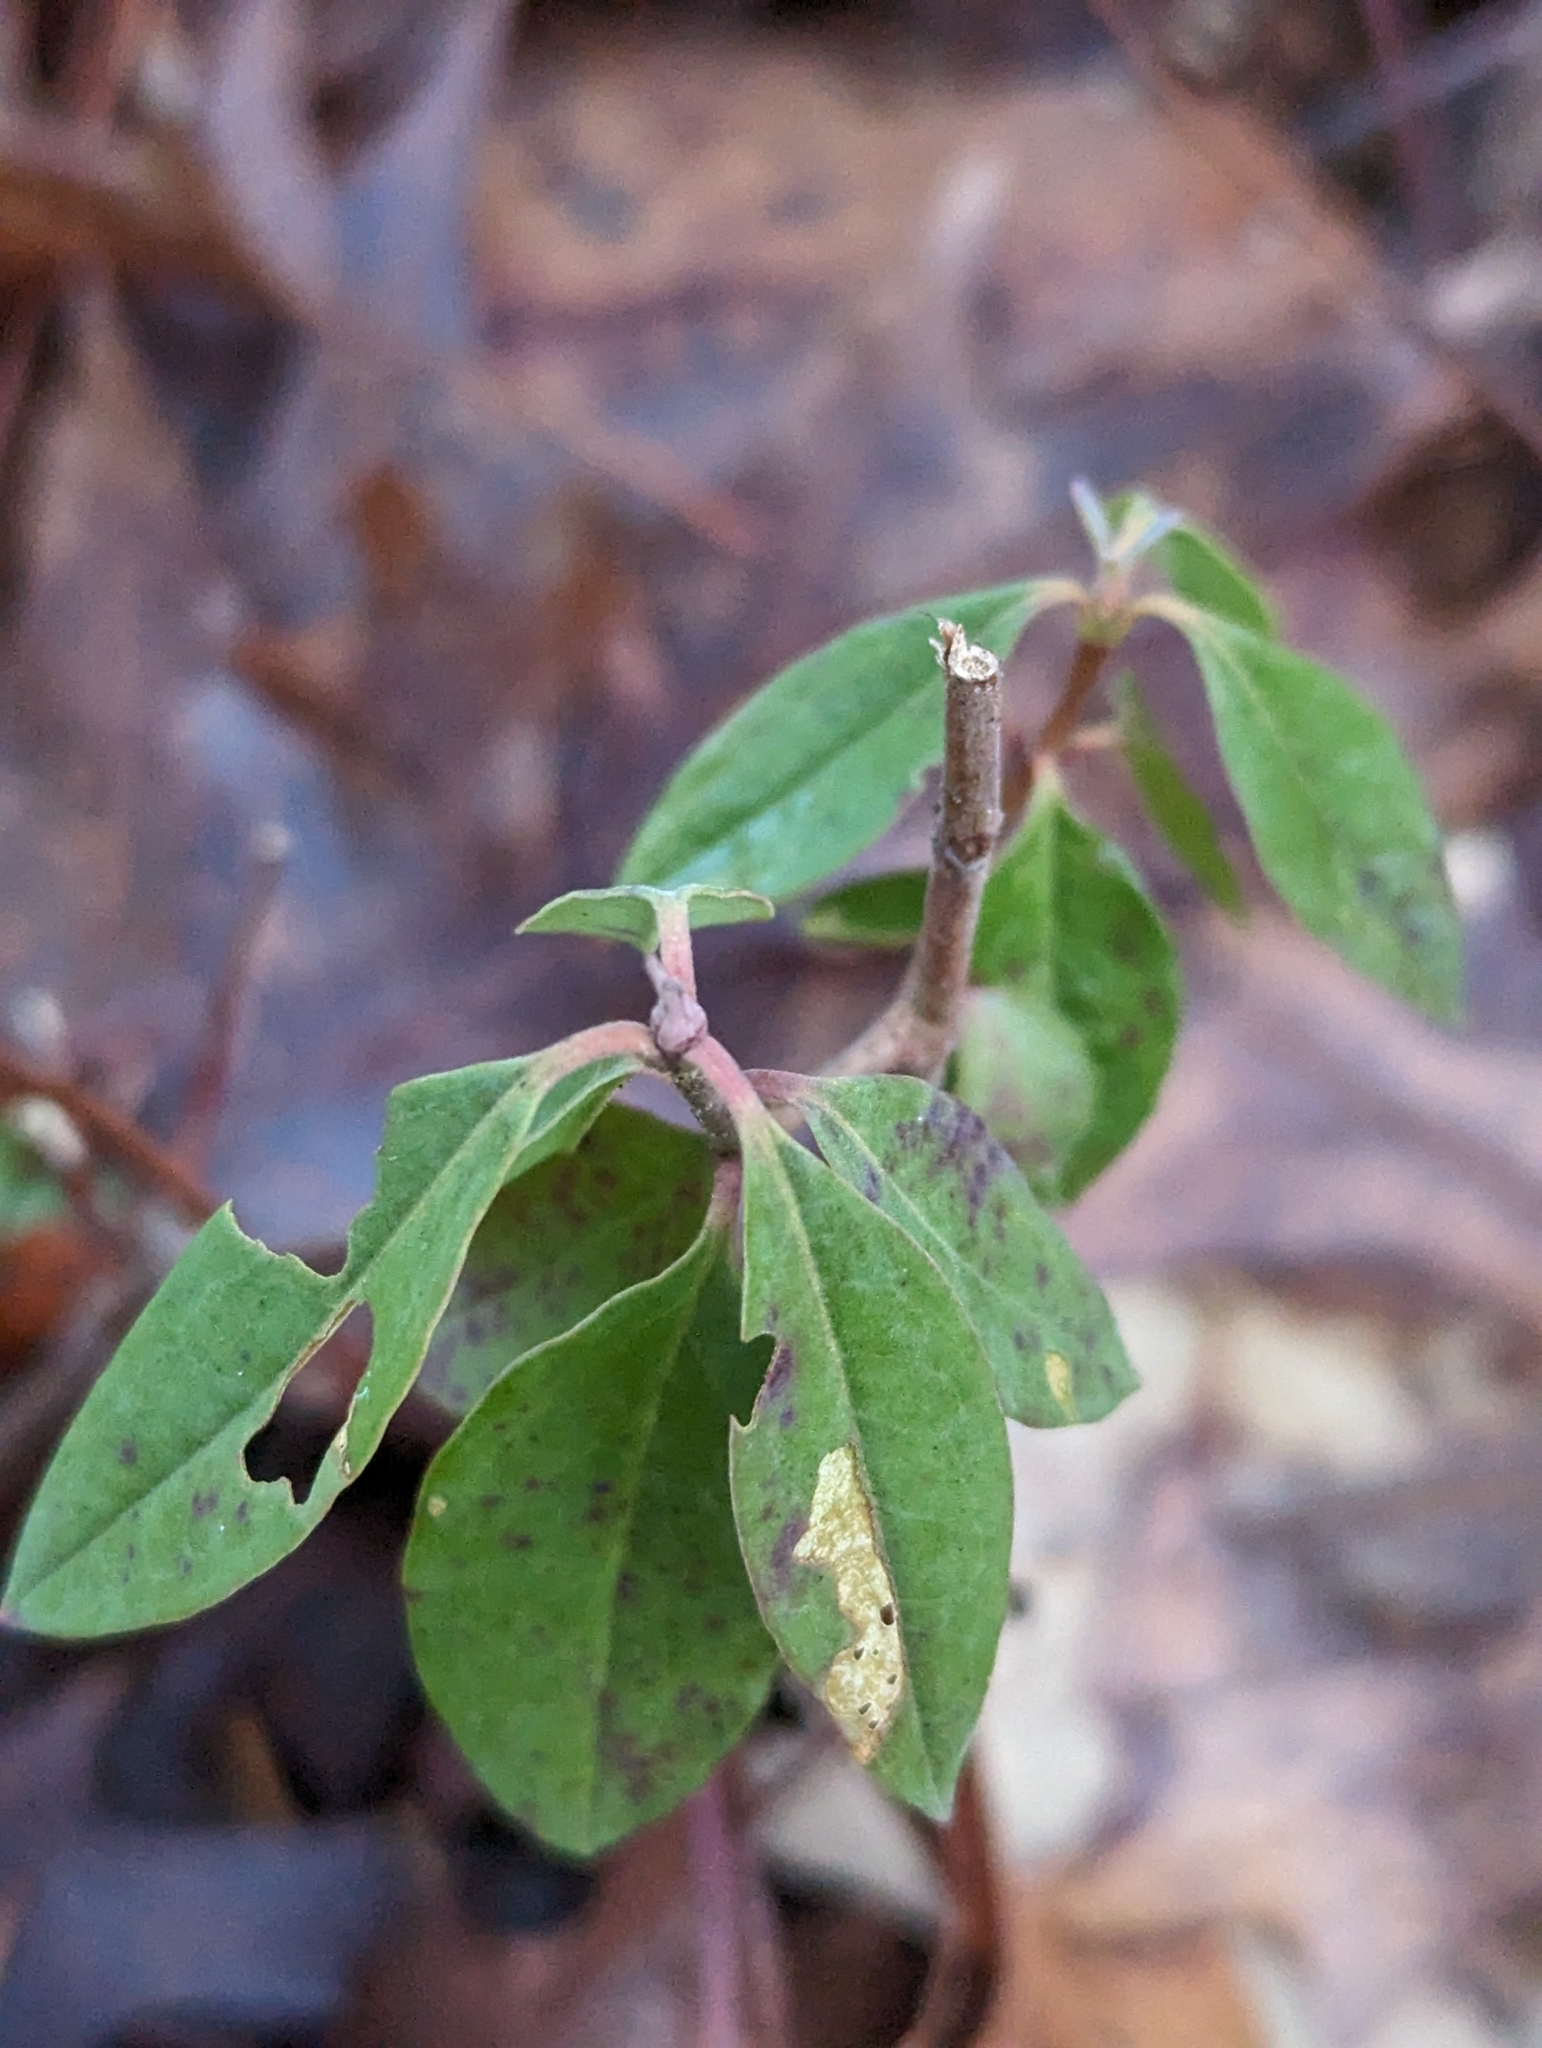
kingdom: Plantae
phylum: Tracheophyta
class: Magnoliopsida
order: Ericales
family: Ericaceae
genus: Kalmia
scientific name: Kalmia angustifolia
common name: Sheep-laurel
